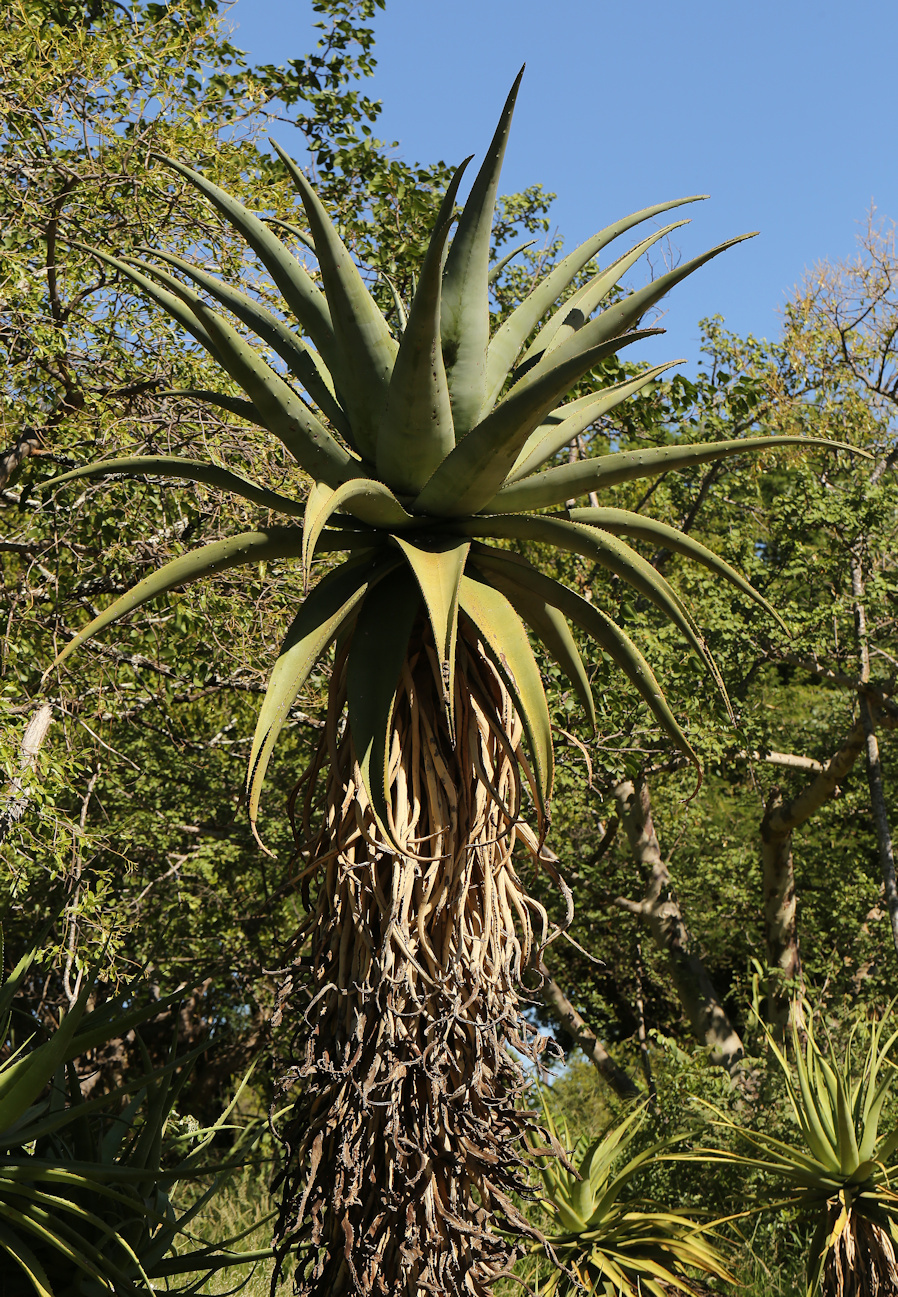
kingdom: Plantae
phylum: Tracheophyta
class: Liliopsida
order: Asparagales
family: Asphodelaceae
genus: Aloe
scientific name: Aloe marlothii
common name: Flat-flowered aloe
